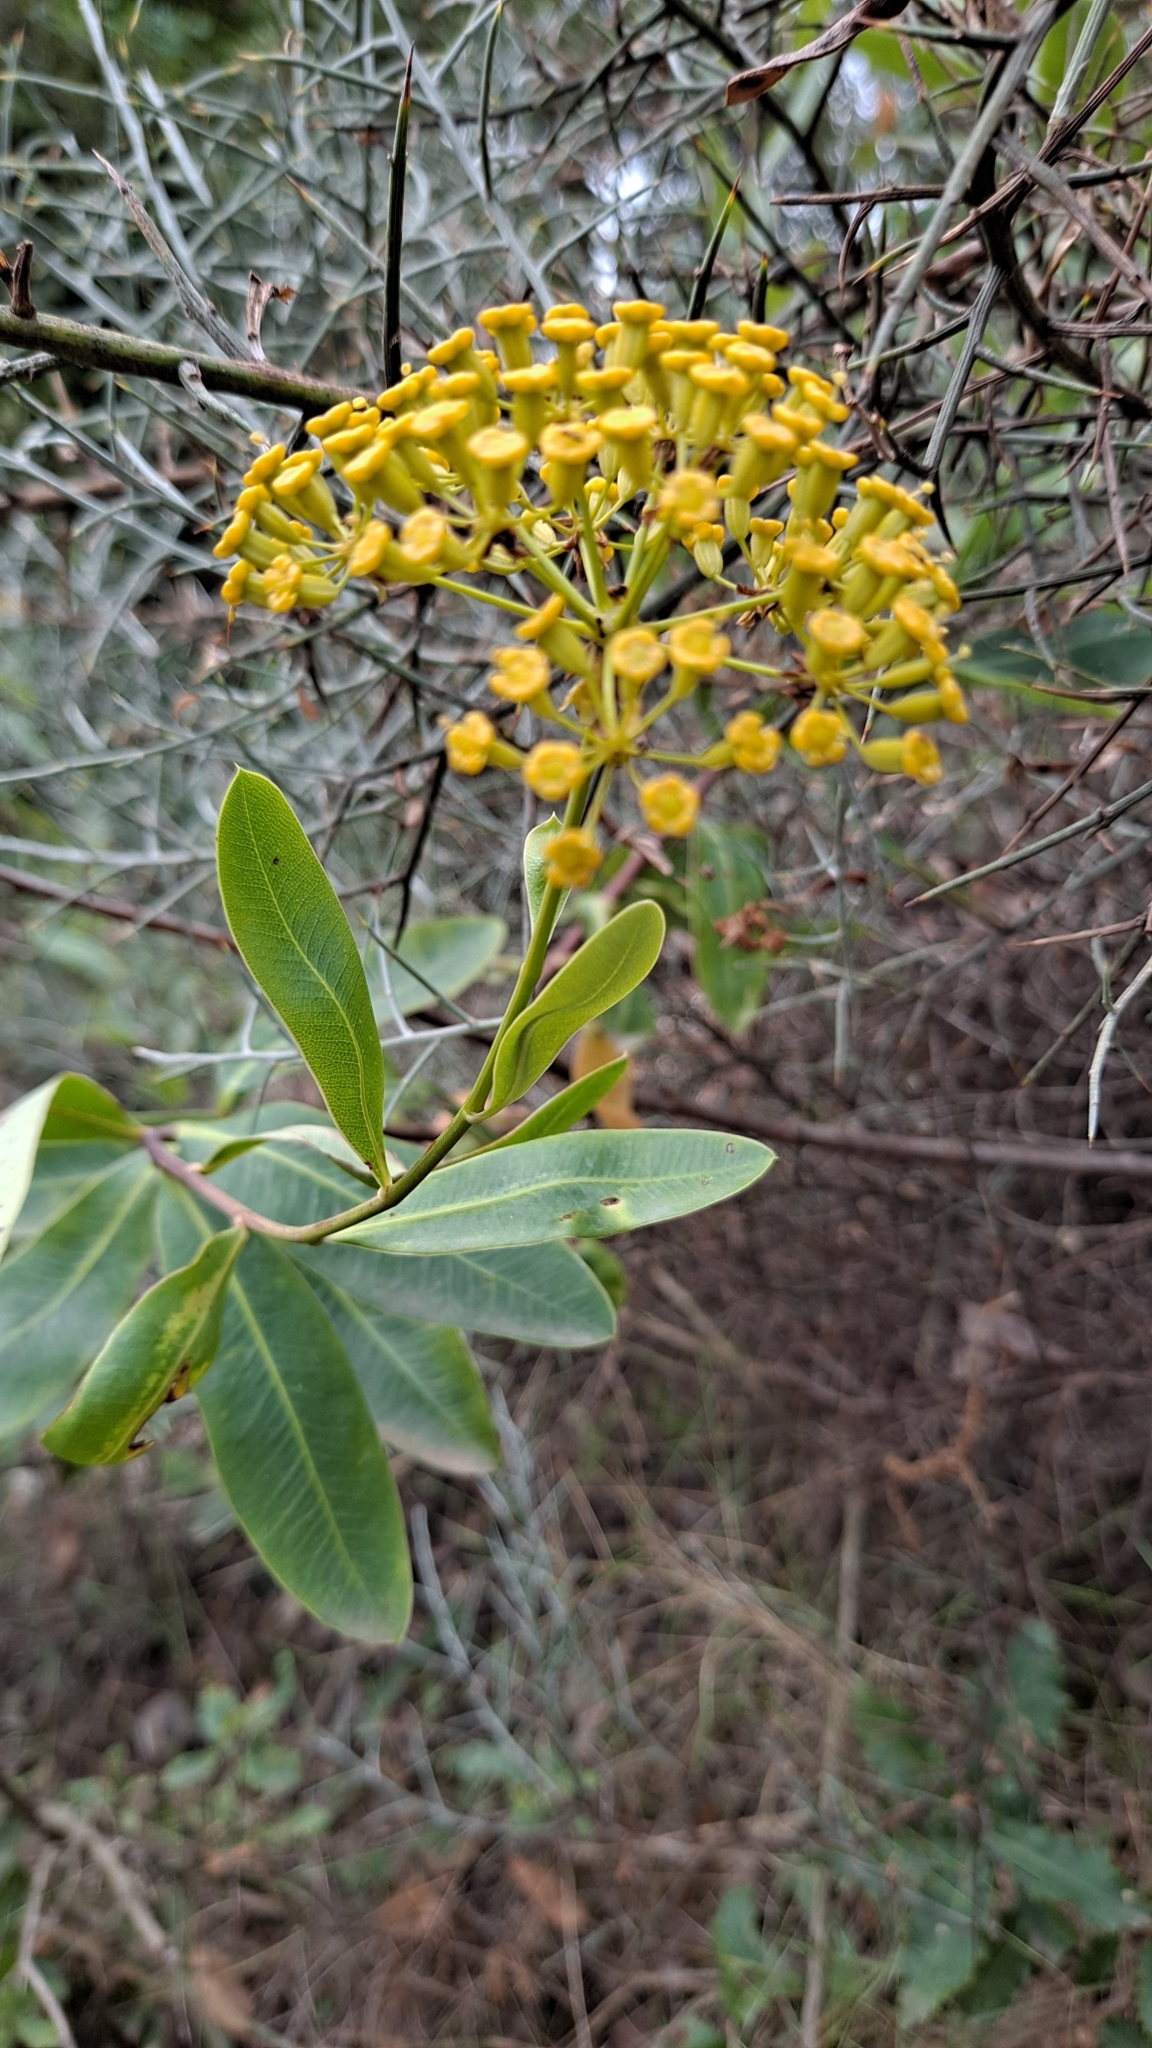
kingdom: Plantae
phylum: Tracheophyta
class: Magnoliopsida
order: Apiales
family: Apiaceae
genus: Bupleurum
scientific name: Bupleurum fruticosum
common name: Shrubby hare's-ear
